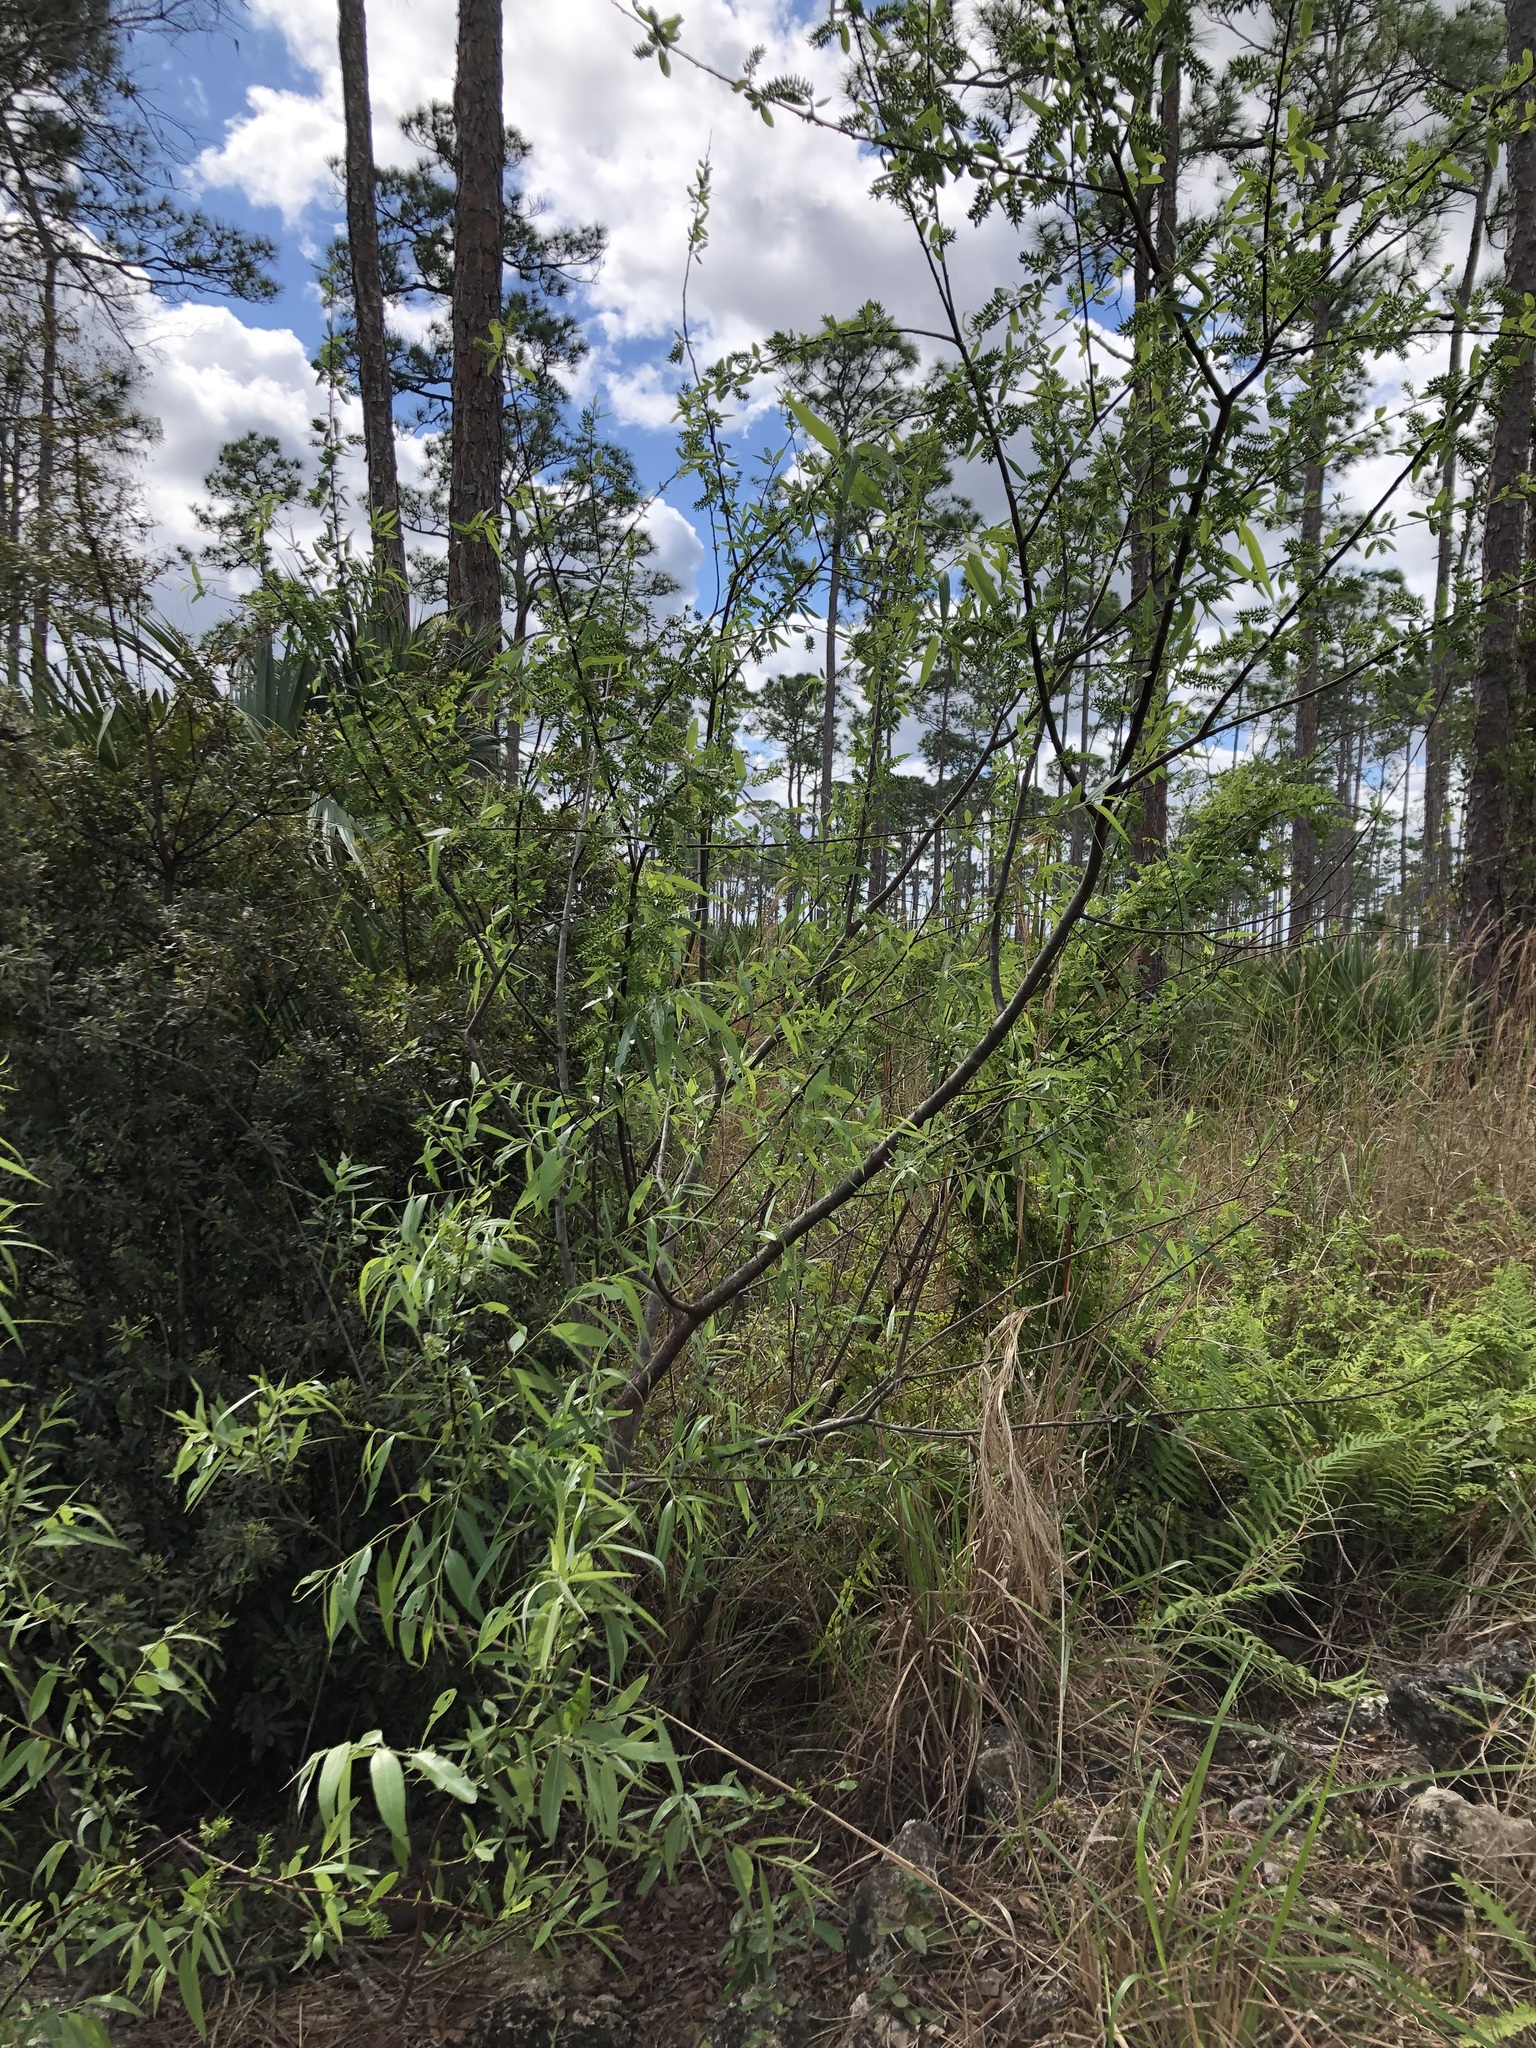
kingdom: Plantae
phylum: Tracheophyta
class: Magnoliopsida
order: Malpighiales
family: Salicaceae
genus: Salix
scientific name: Salix caroliniana
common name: Carolina willow
